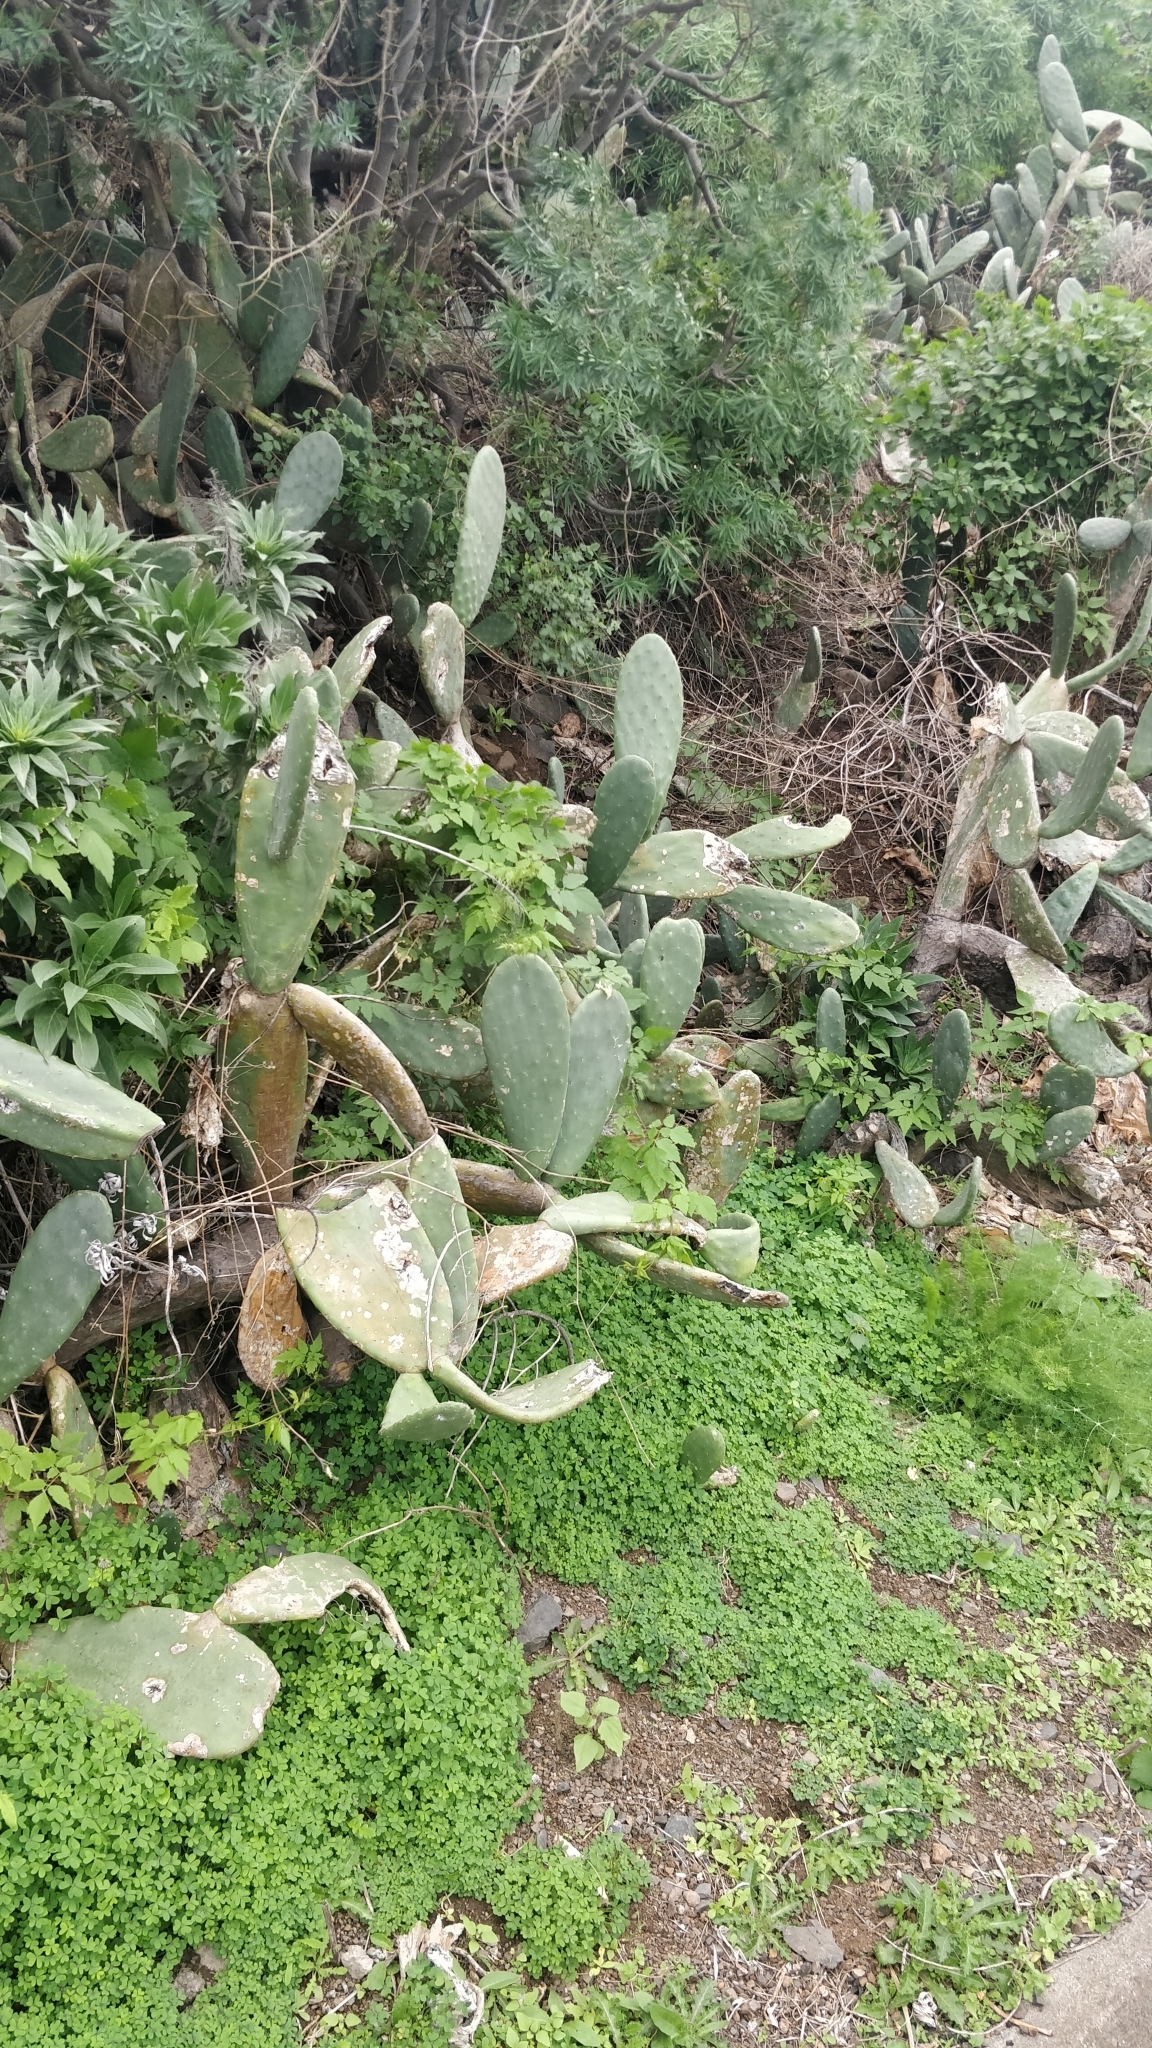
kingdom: Plantae
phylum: Tracheophyta
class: Magnoliopsida
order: Caryophyllales
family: Cactaceae
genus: Opuntia
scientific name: Opuntia ficus-indica
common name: Barbary fig
